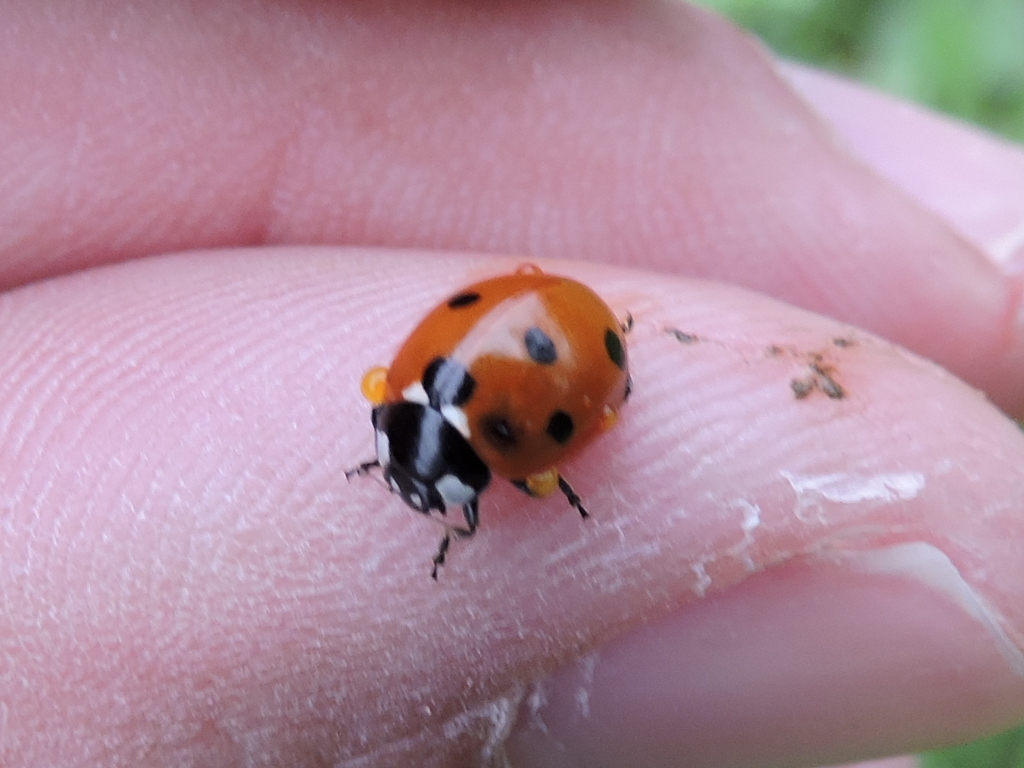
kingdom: Animalia
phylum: Arthropoda
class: Insecta
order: Coleoptera
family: Coccinellidae
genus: Coccinella
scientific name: Coccinella septempunctata
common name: Sevenspotted lady beetle
